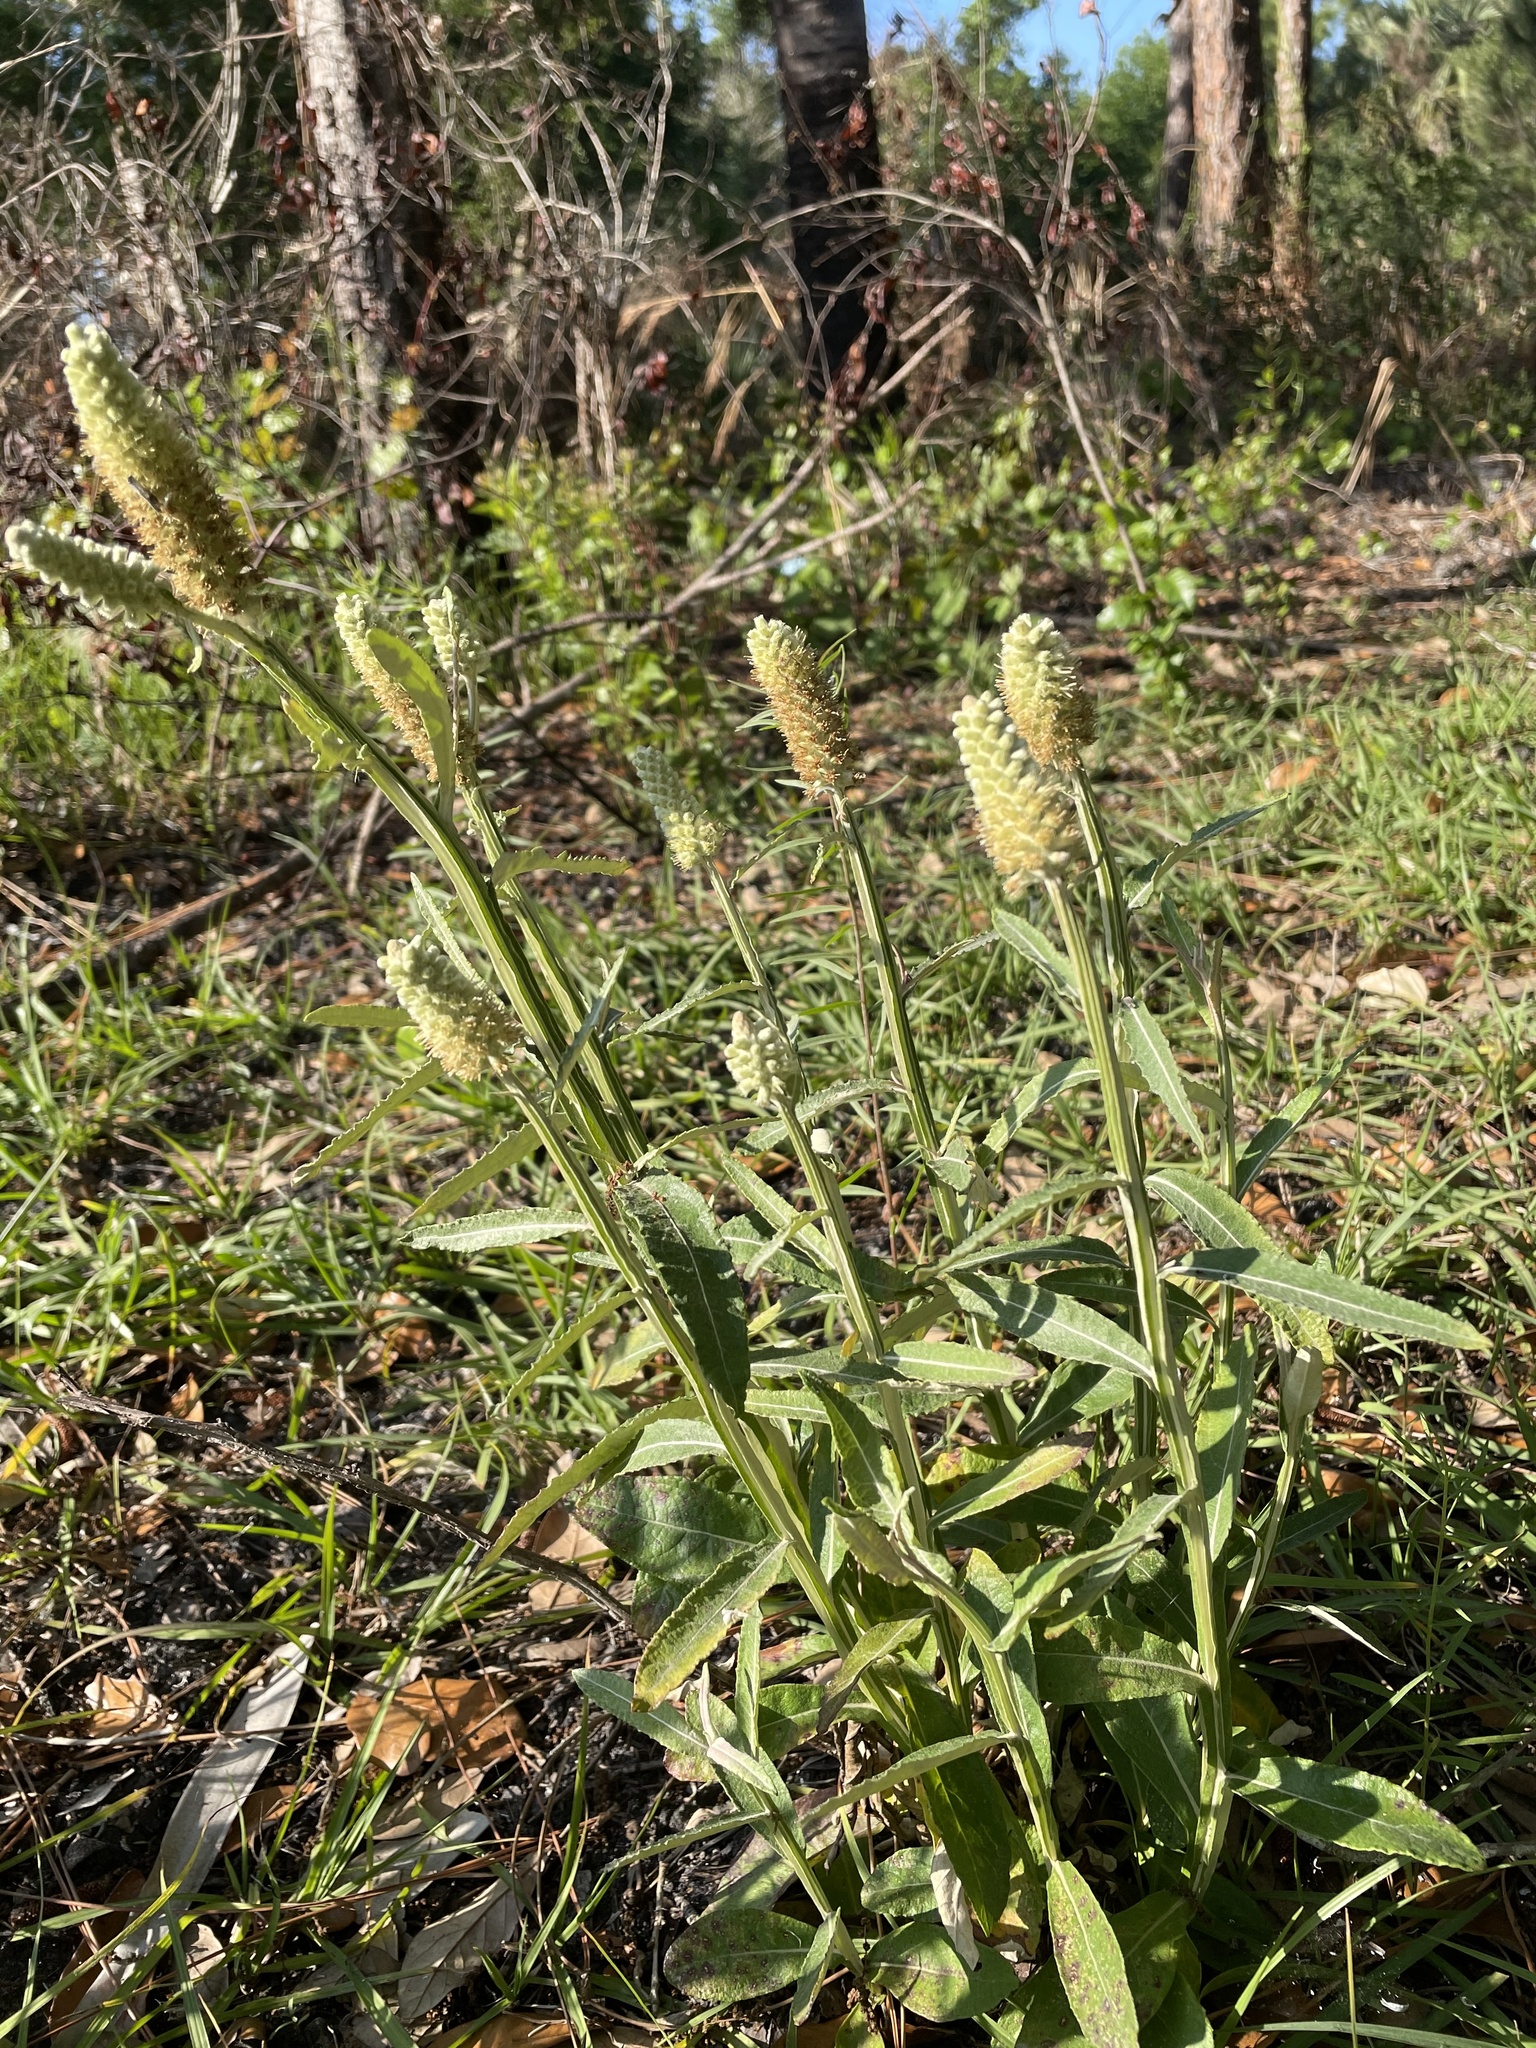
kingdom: Plantae
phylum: Tracheophyta
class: Magnoliopsida
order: Asterales
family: Asteraceae
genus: Pterocaulon
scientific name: Pterocaulon pycnostachyum
